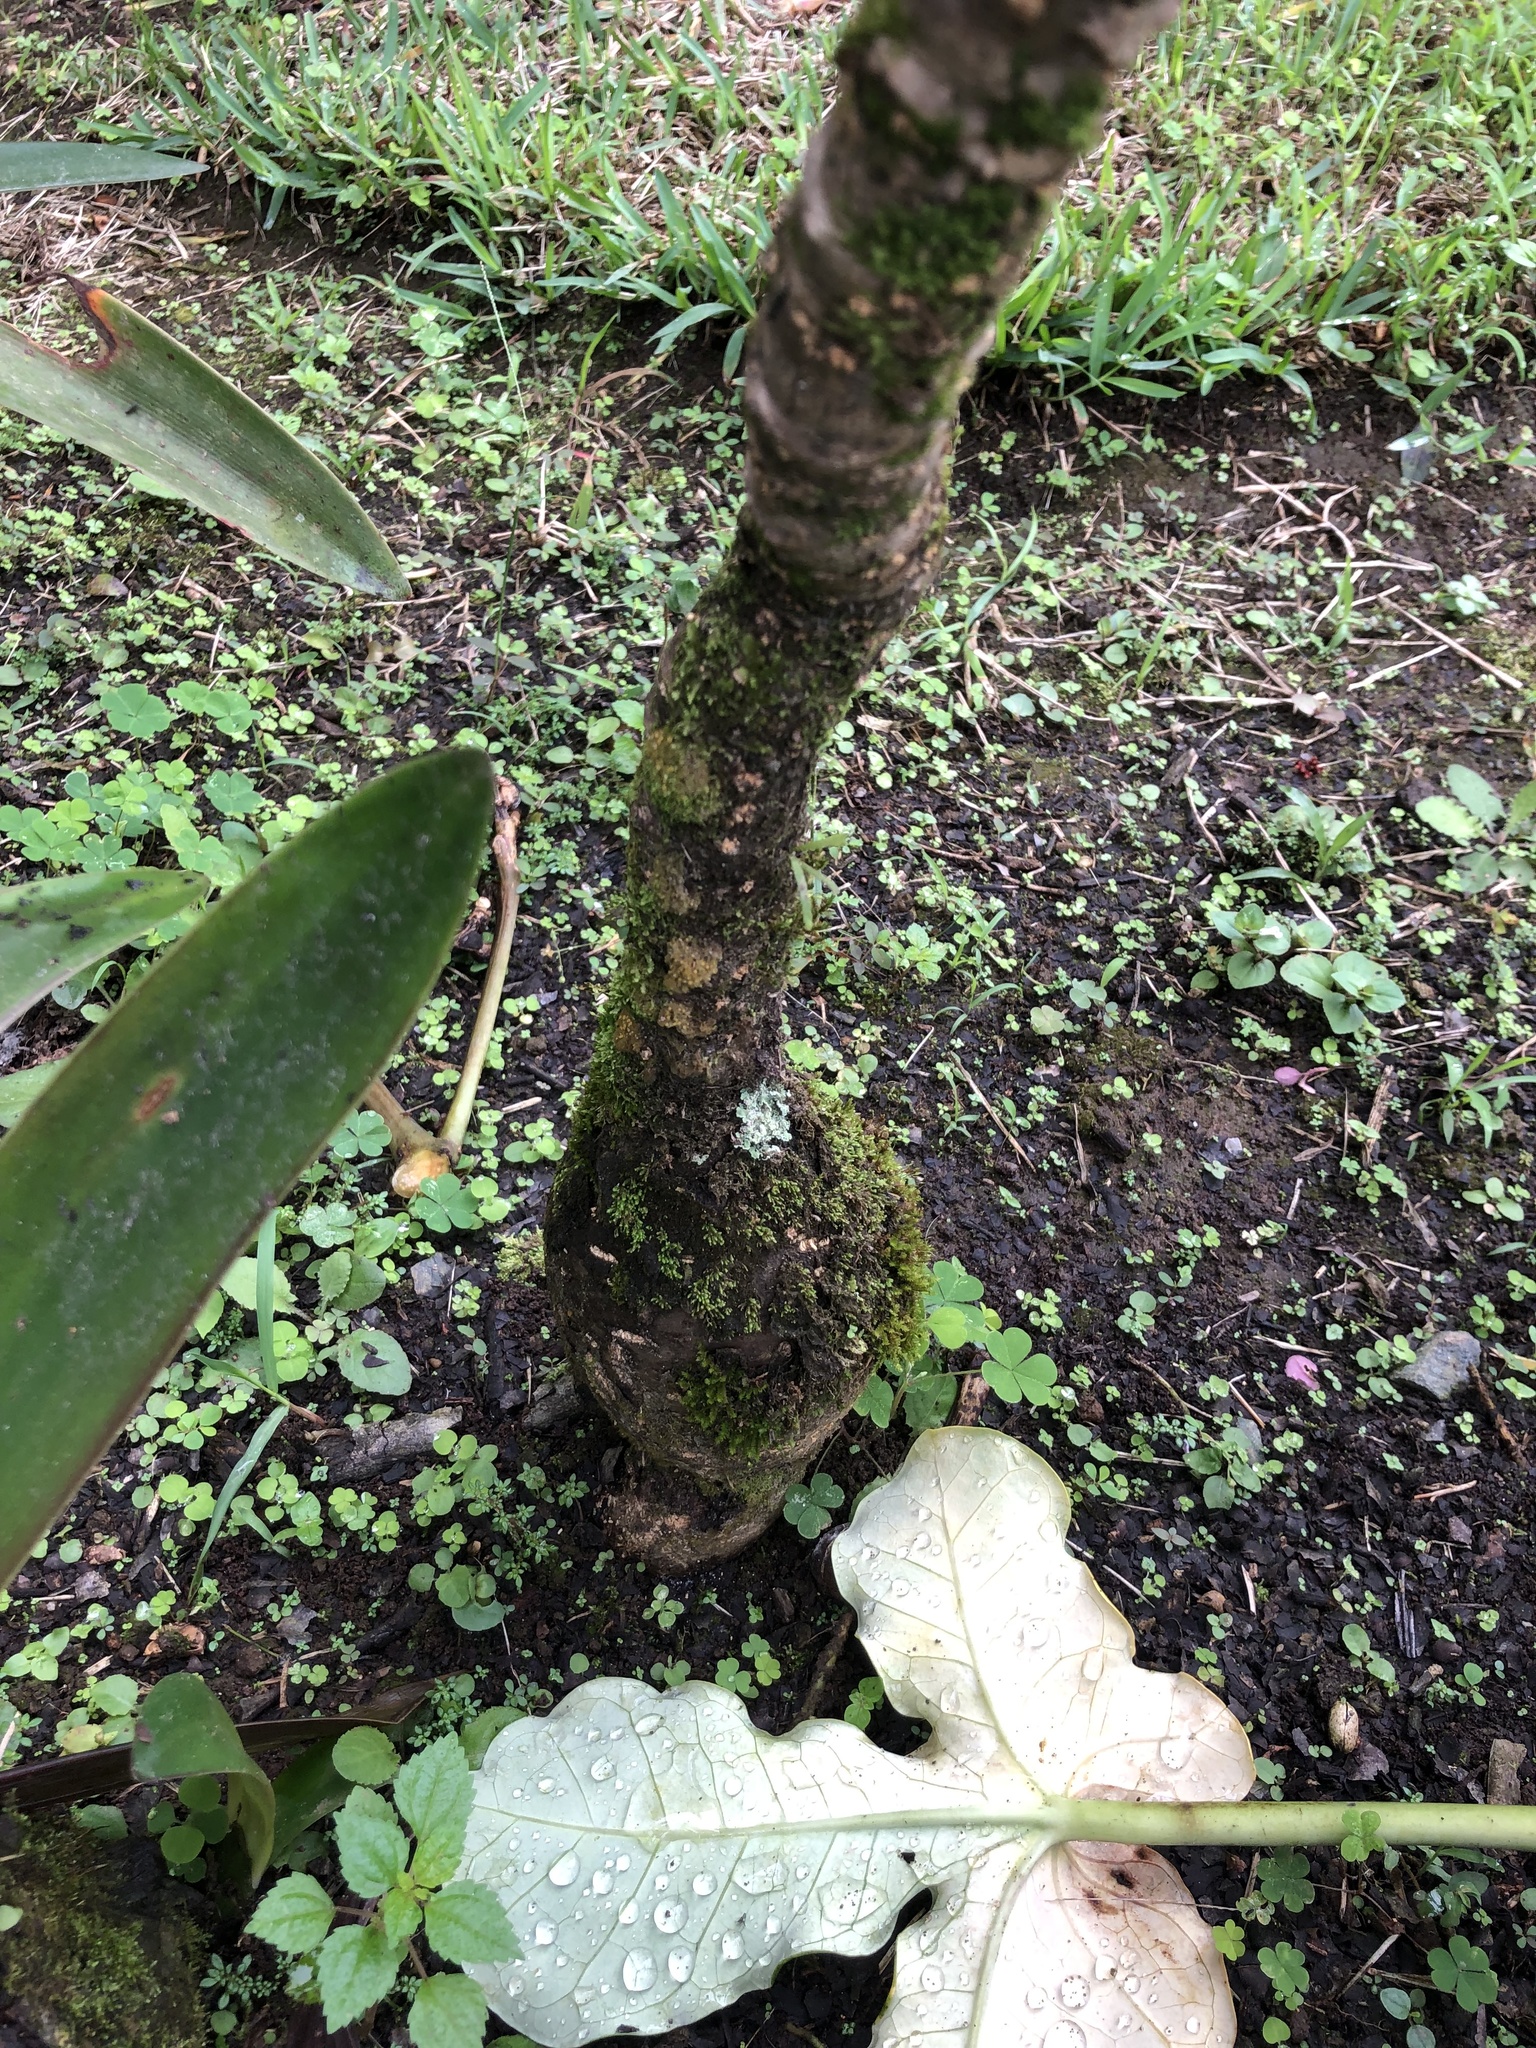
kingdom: Plantae
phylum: Tracheophyta
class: Magnoliopsida
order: Malpighiales
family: Euphorbiaceae
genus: Jatropha
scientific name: Jatropha podagrica
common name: Gout stalk
